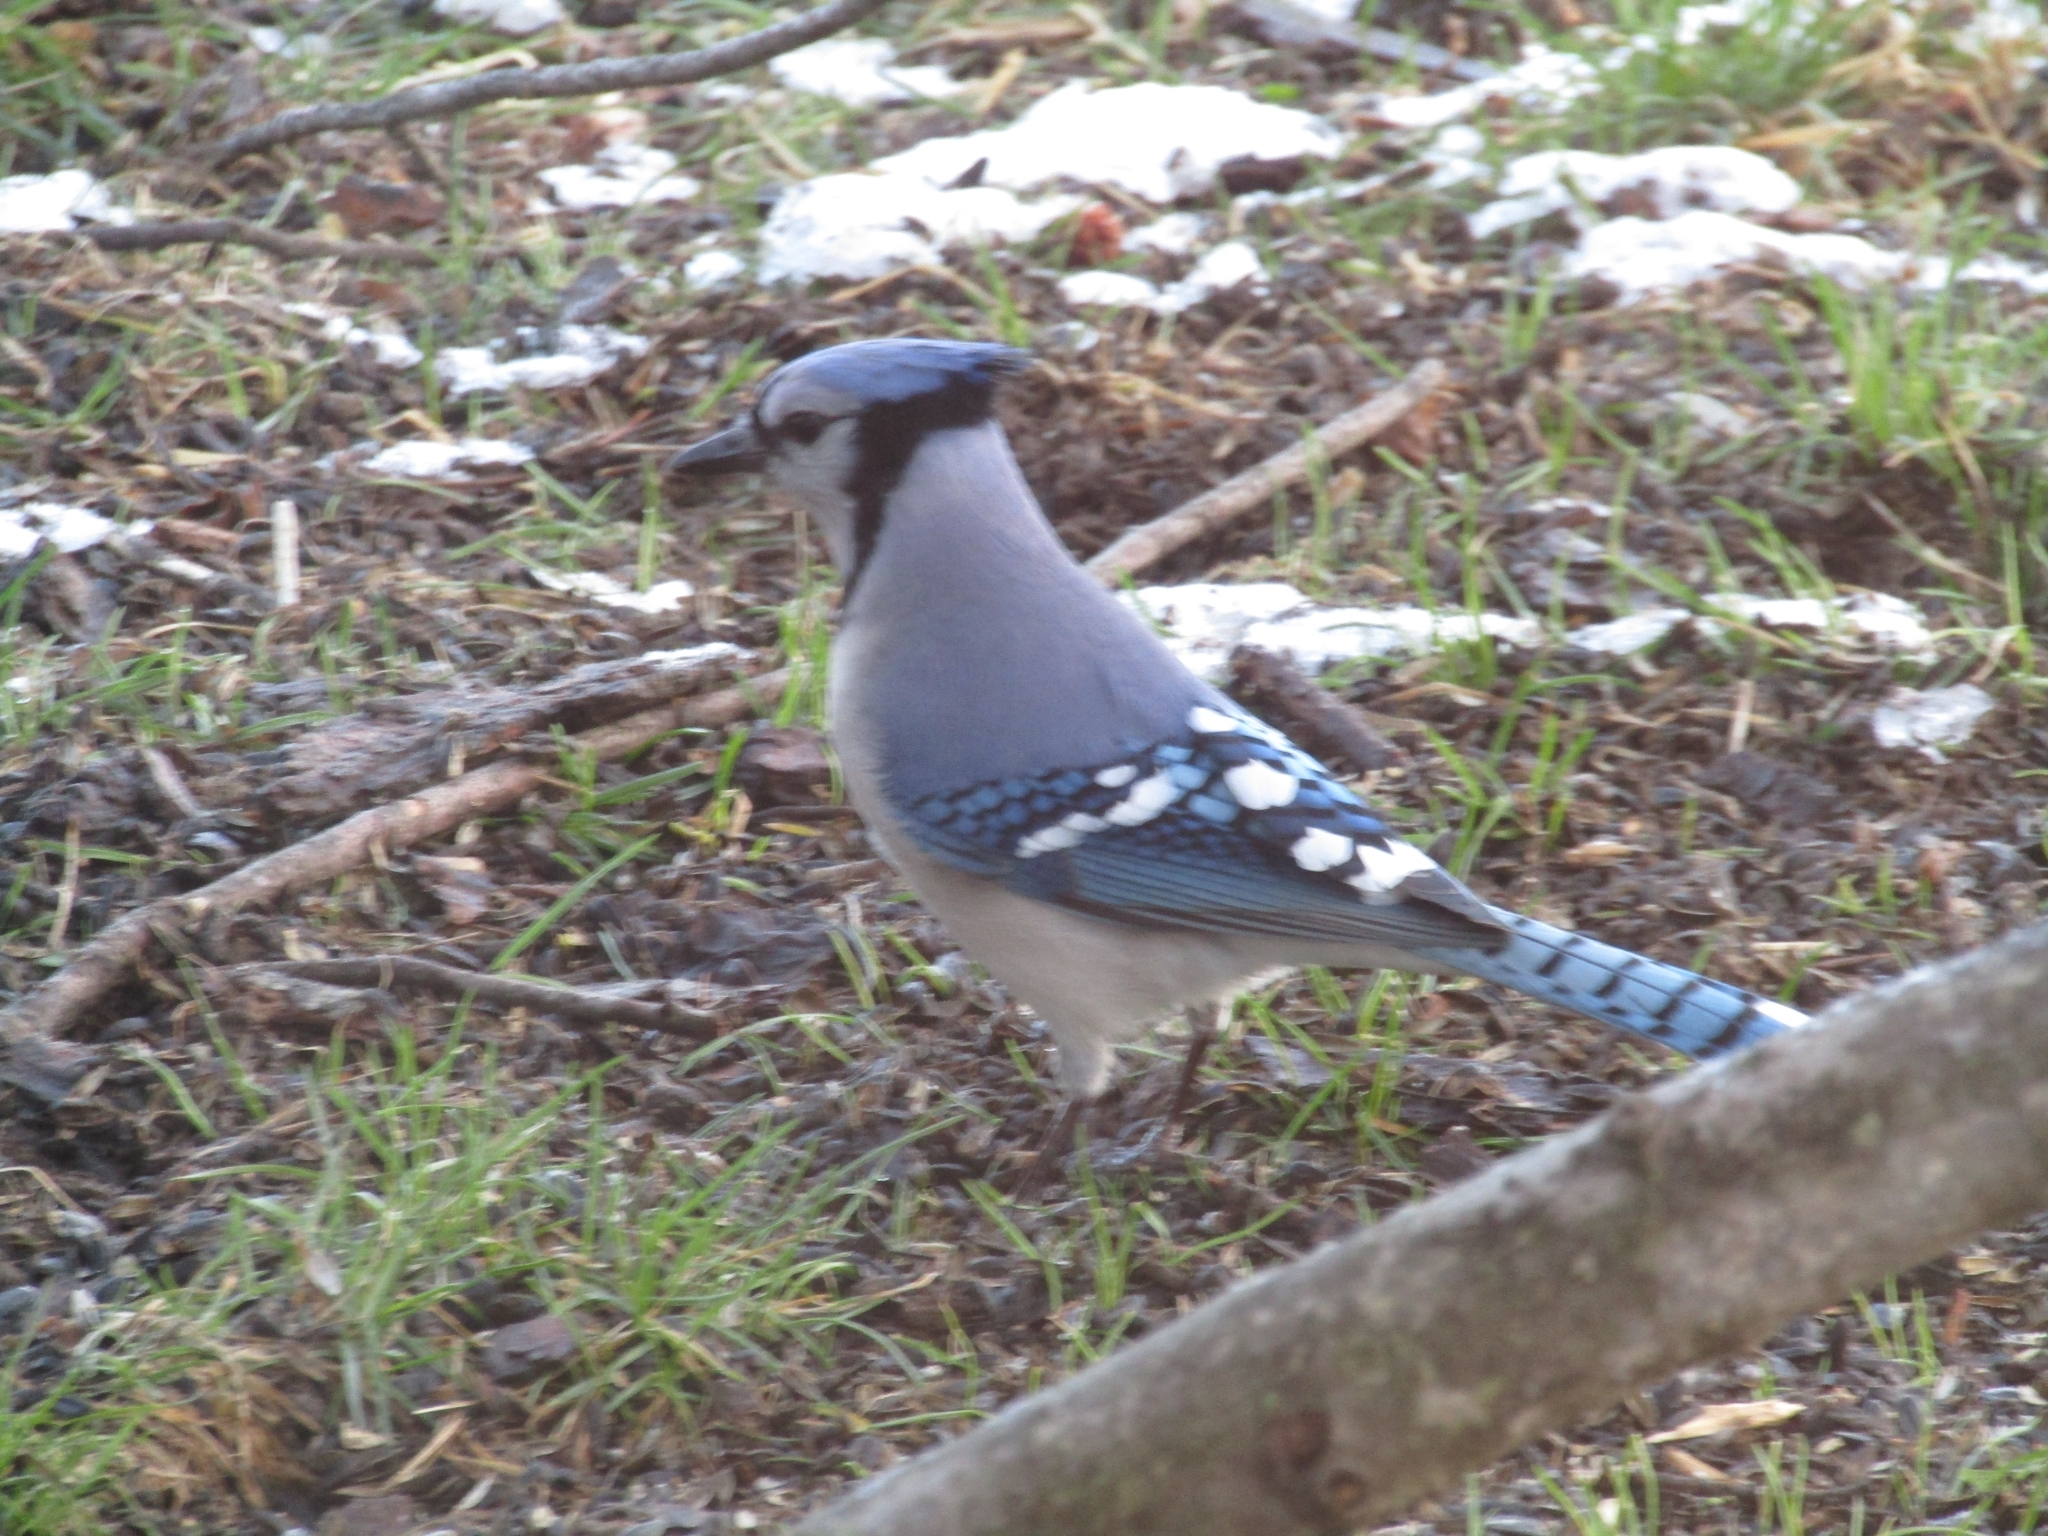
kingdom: Animalia
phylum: Chordata
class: Aves
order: Passeriformes
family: Corvidae
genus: Cyanocitta
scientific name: Cyanocitta cristata
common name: Blue jay
